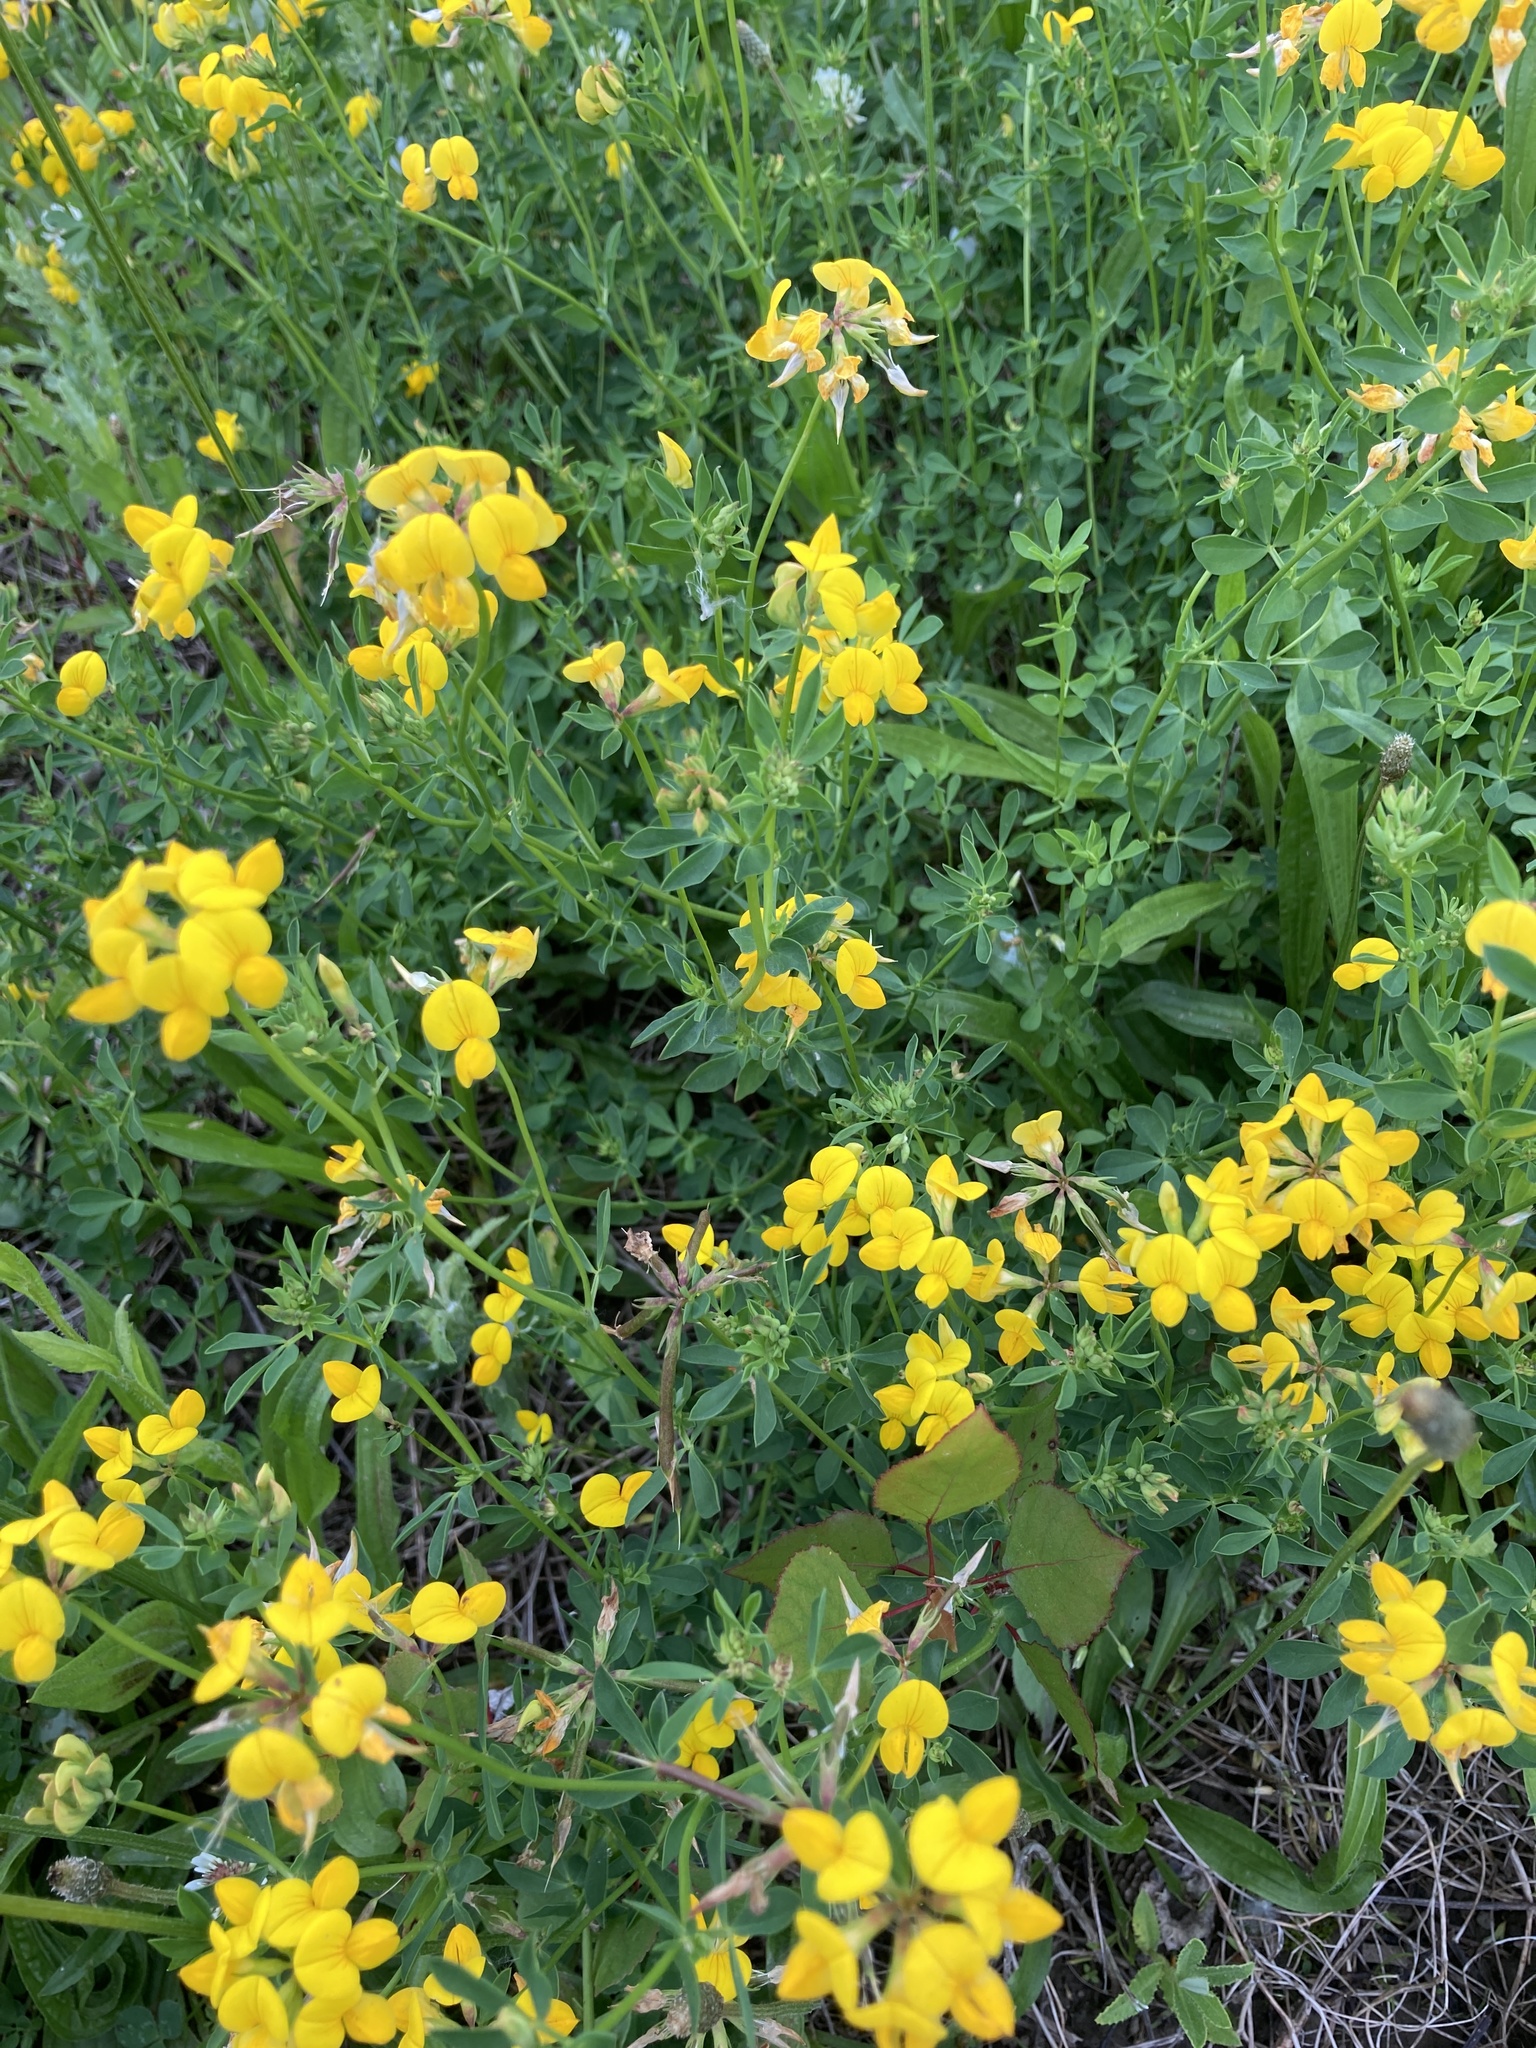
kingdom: Plantae
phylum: Tracheophyta
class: Magnoliopsida
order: Fabales
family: Fabaceae
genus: Lotus
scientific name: Lotus corniculatus
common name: Common bird's-foot-trefoil
